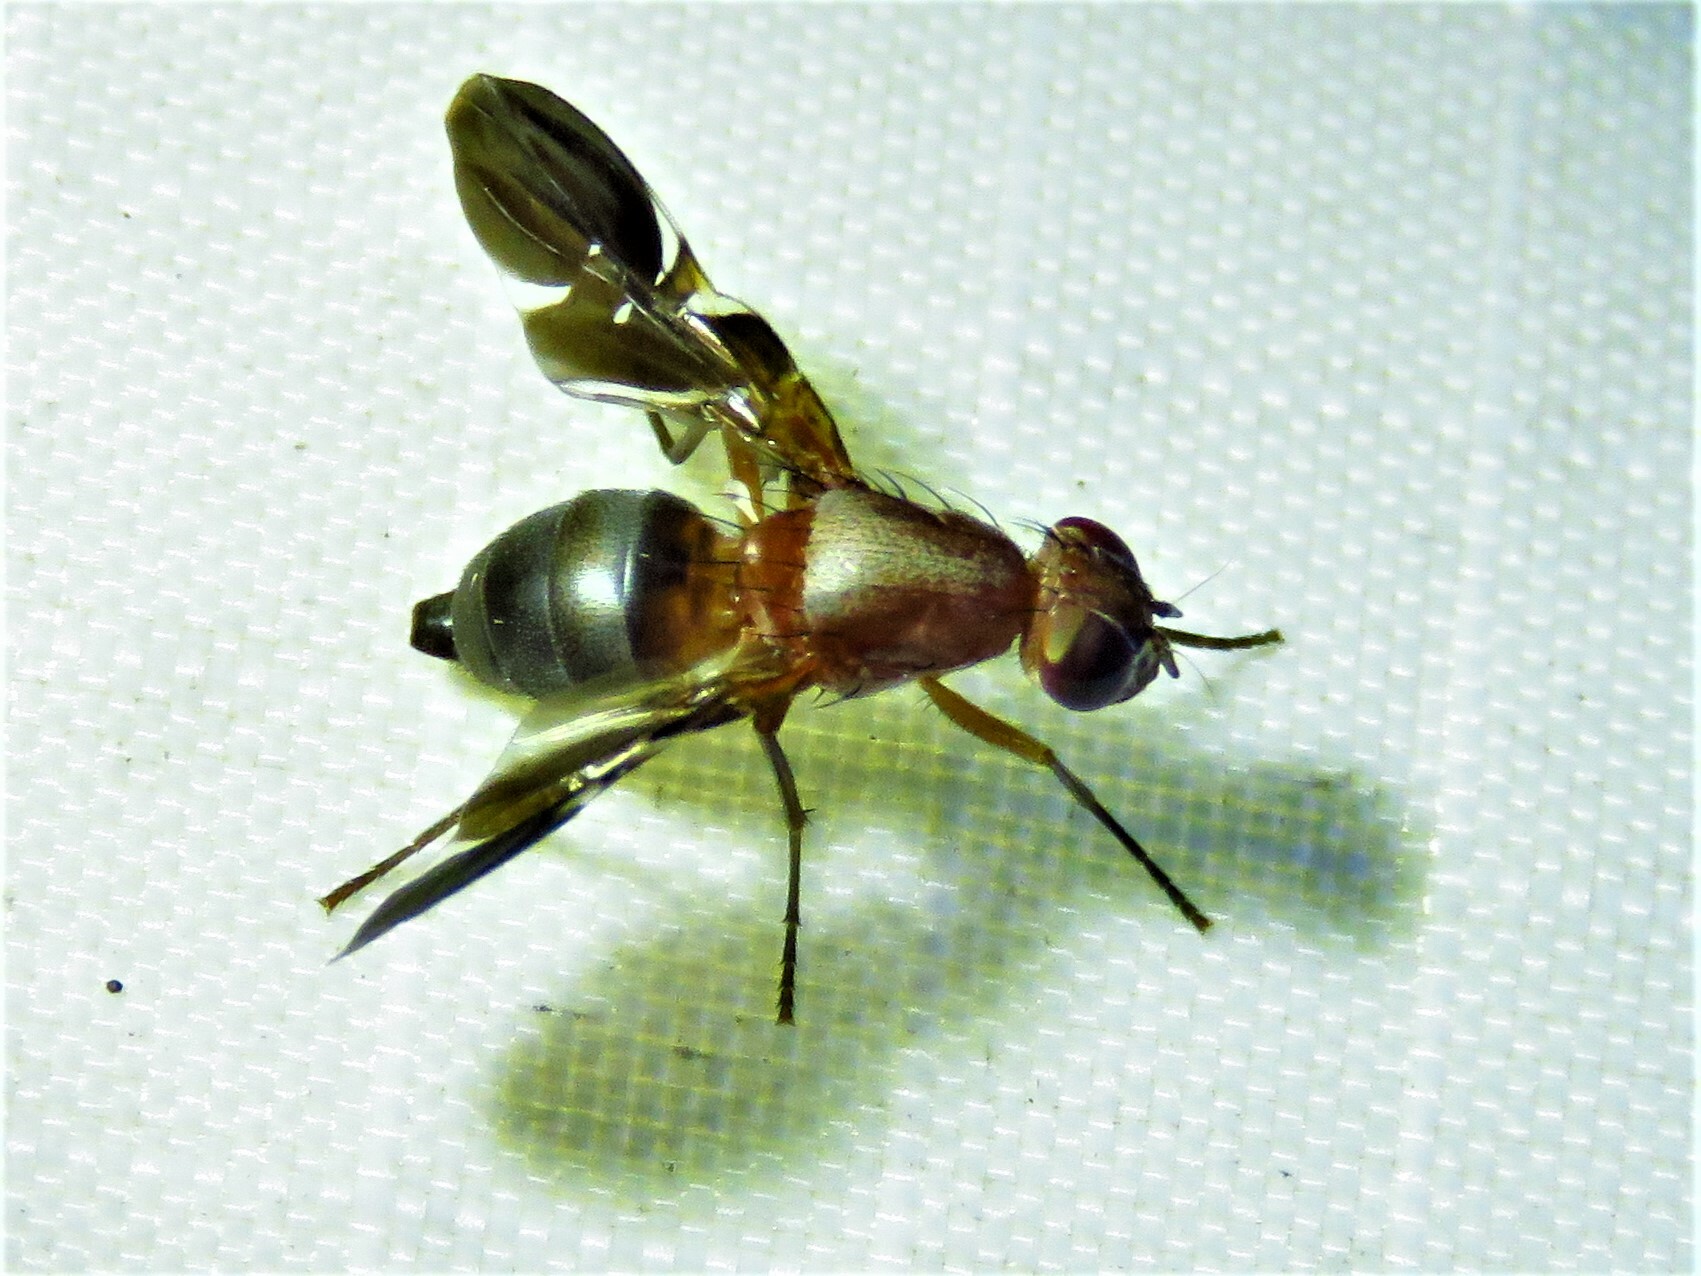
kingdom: Animalia
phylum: Arthropoda
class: Insecta
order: Diptera
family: Ulidiidae
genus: Delphinia
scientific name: Delphinia picta
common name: Common picture-winged fly
